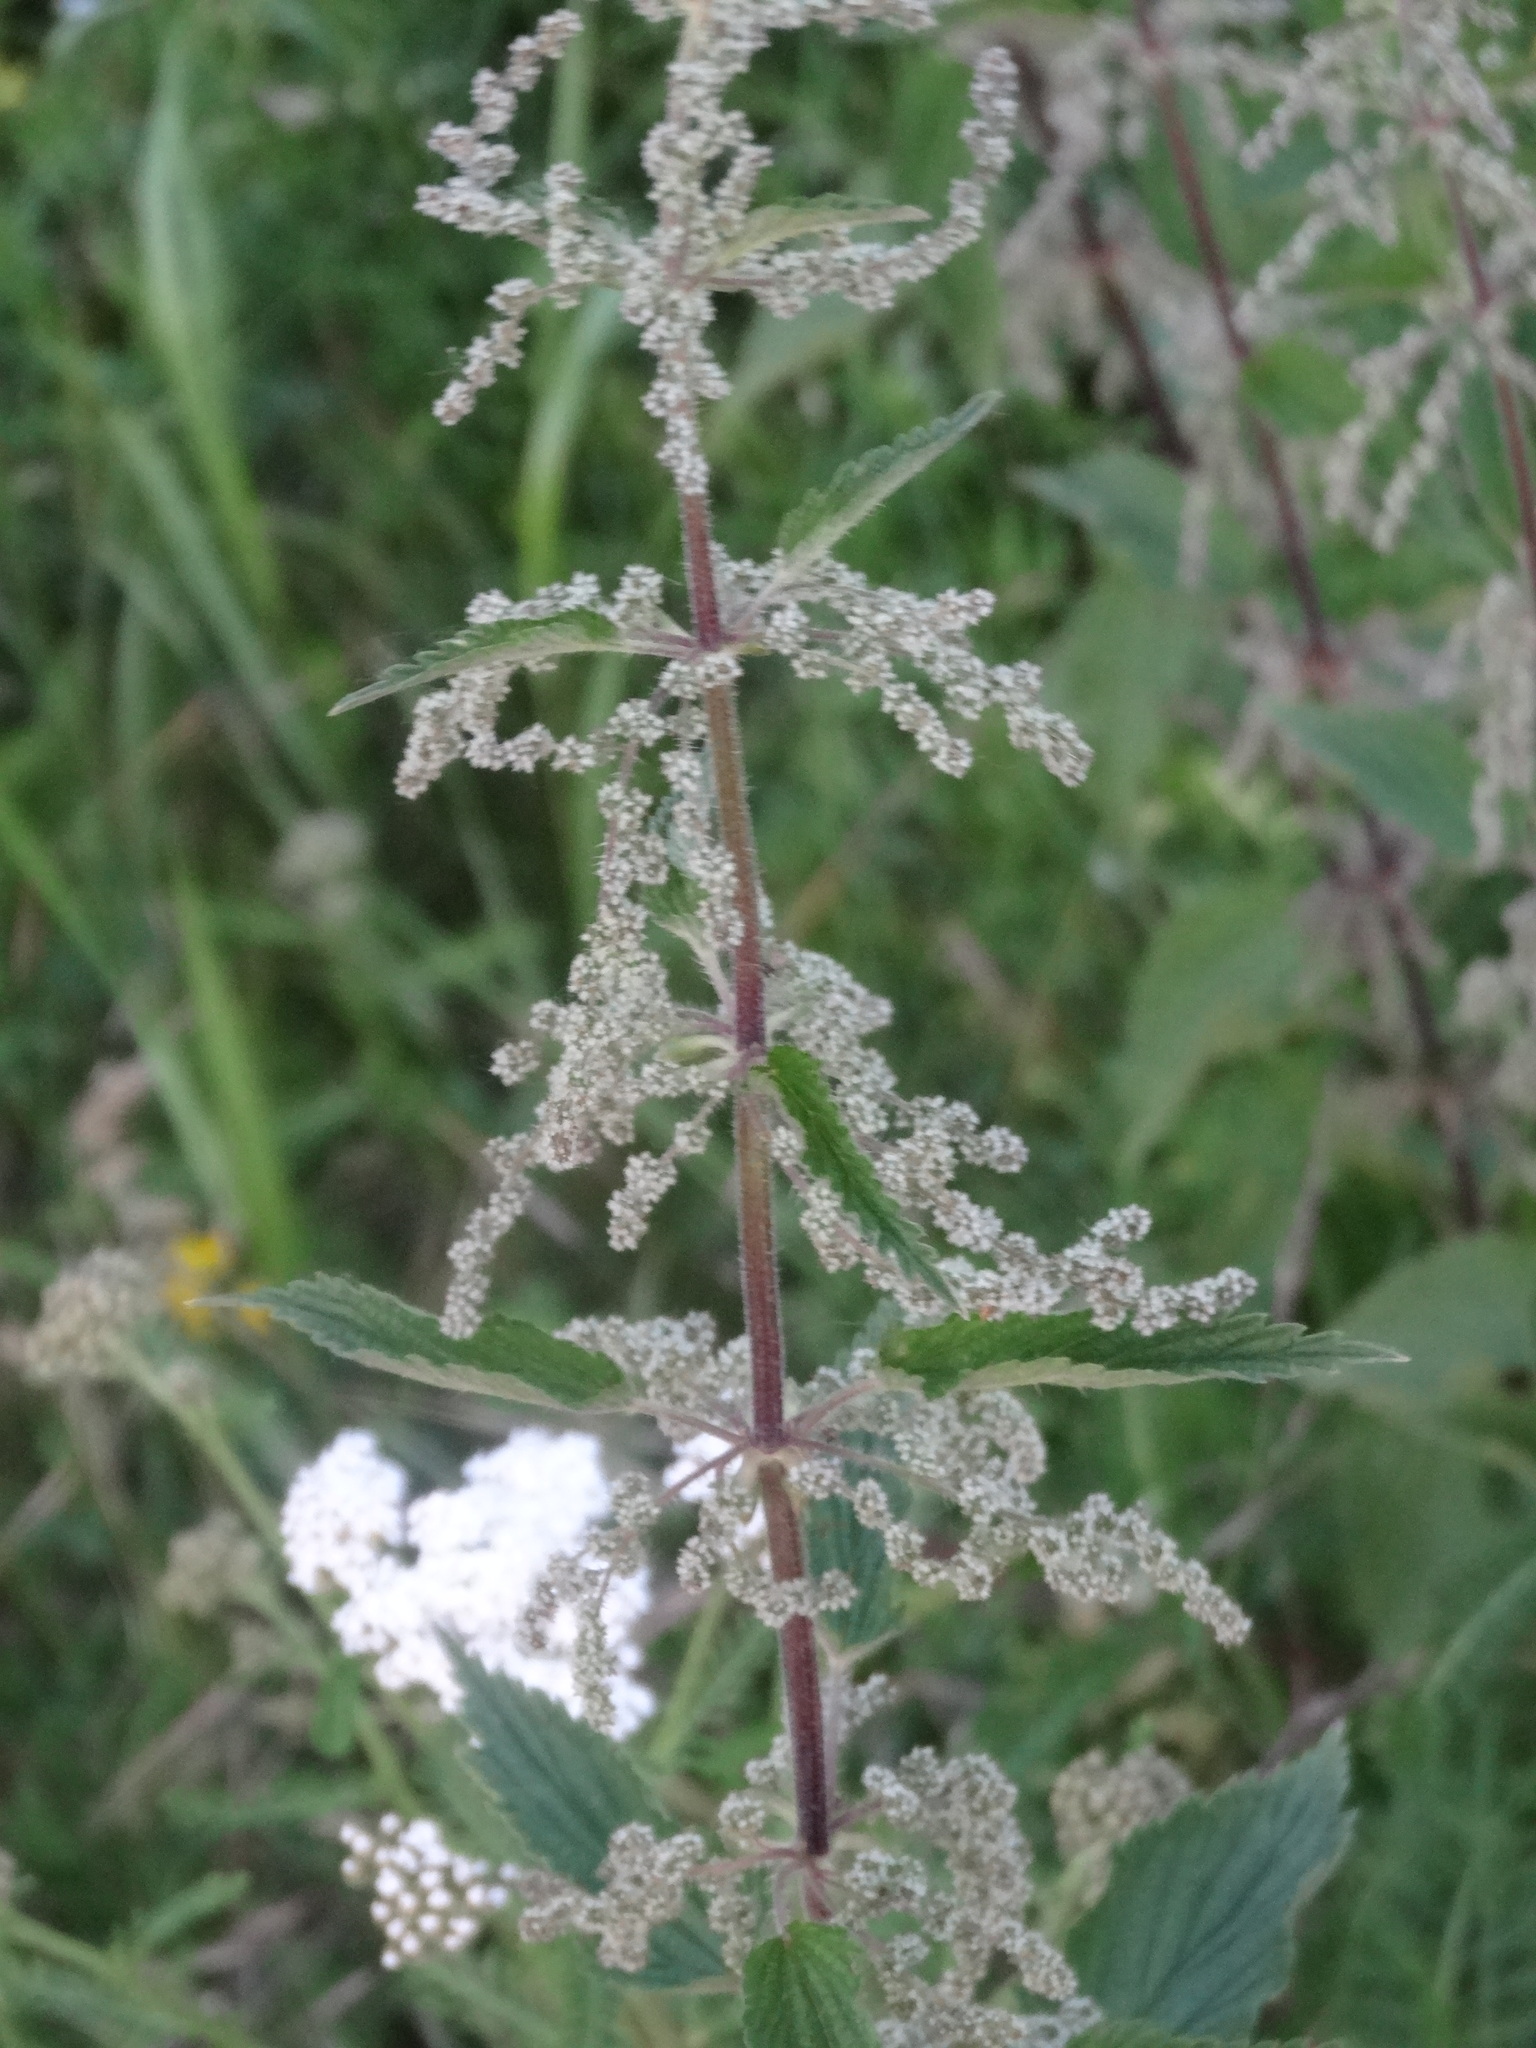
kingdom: Plantae
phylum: Tracheophyta
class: Magnoliopsida
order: Rosales
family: Urticaceae
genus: Urtica
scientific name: Urtica dioica
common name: Common nettle
